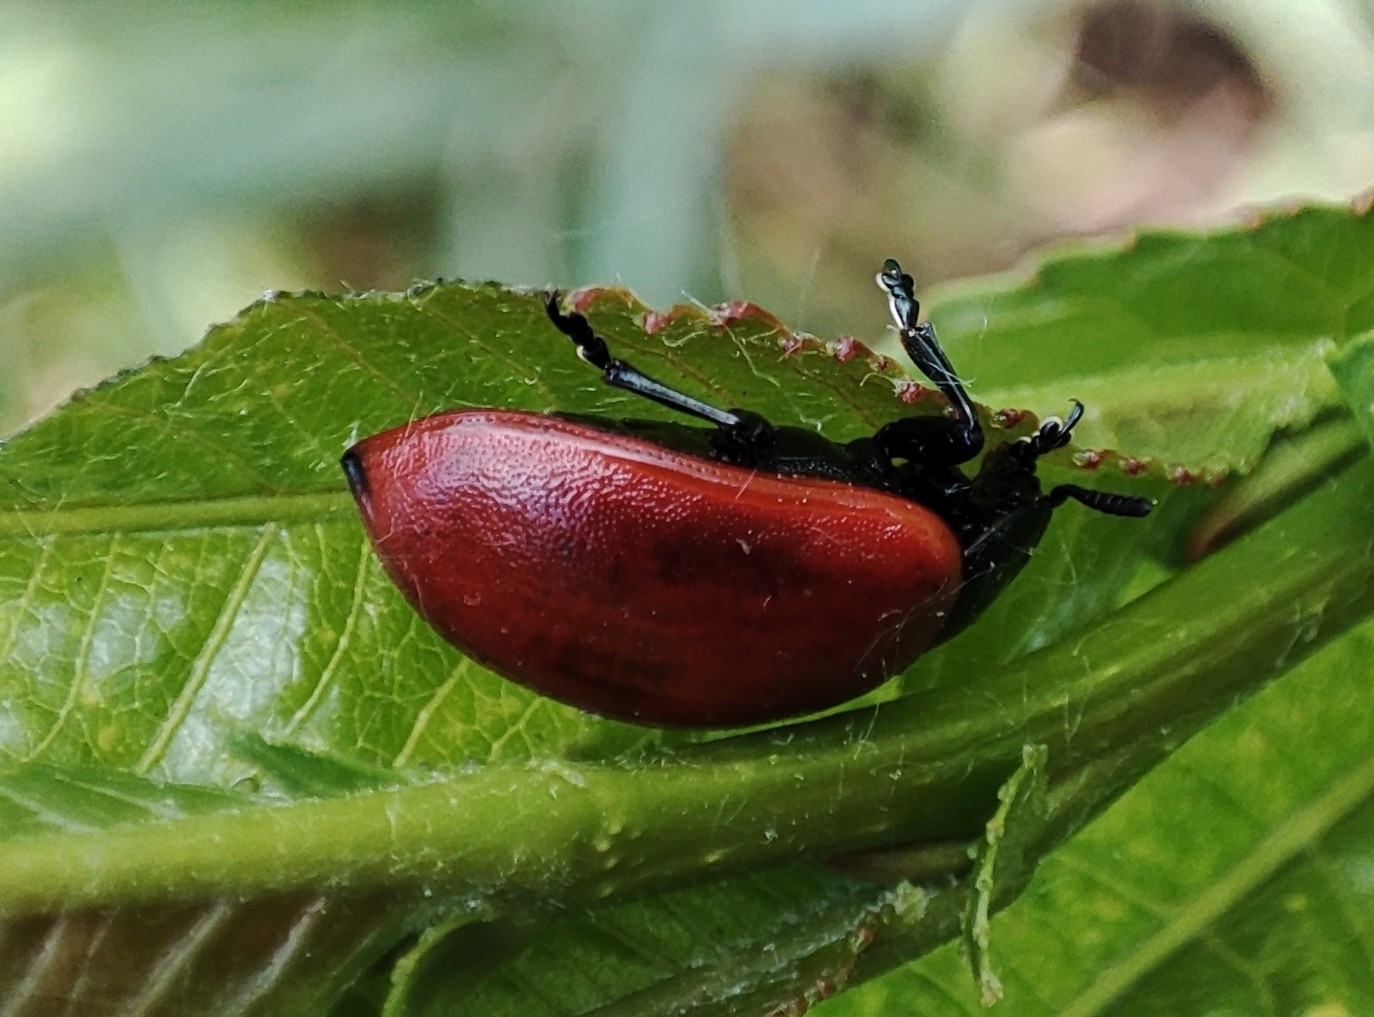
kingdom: Animalia
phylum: Arthropoda
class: Insecta
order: Coleoptera
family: Chrysomelidae
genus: Chrysomela
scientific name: Chrysomela populi
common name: Red poplar leaf beetle
